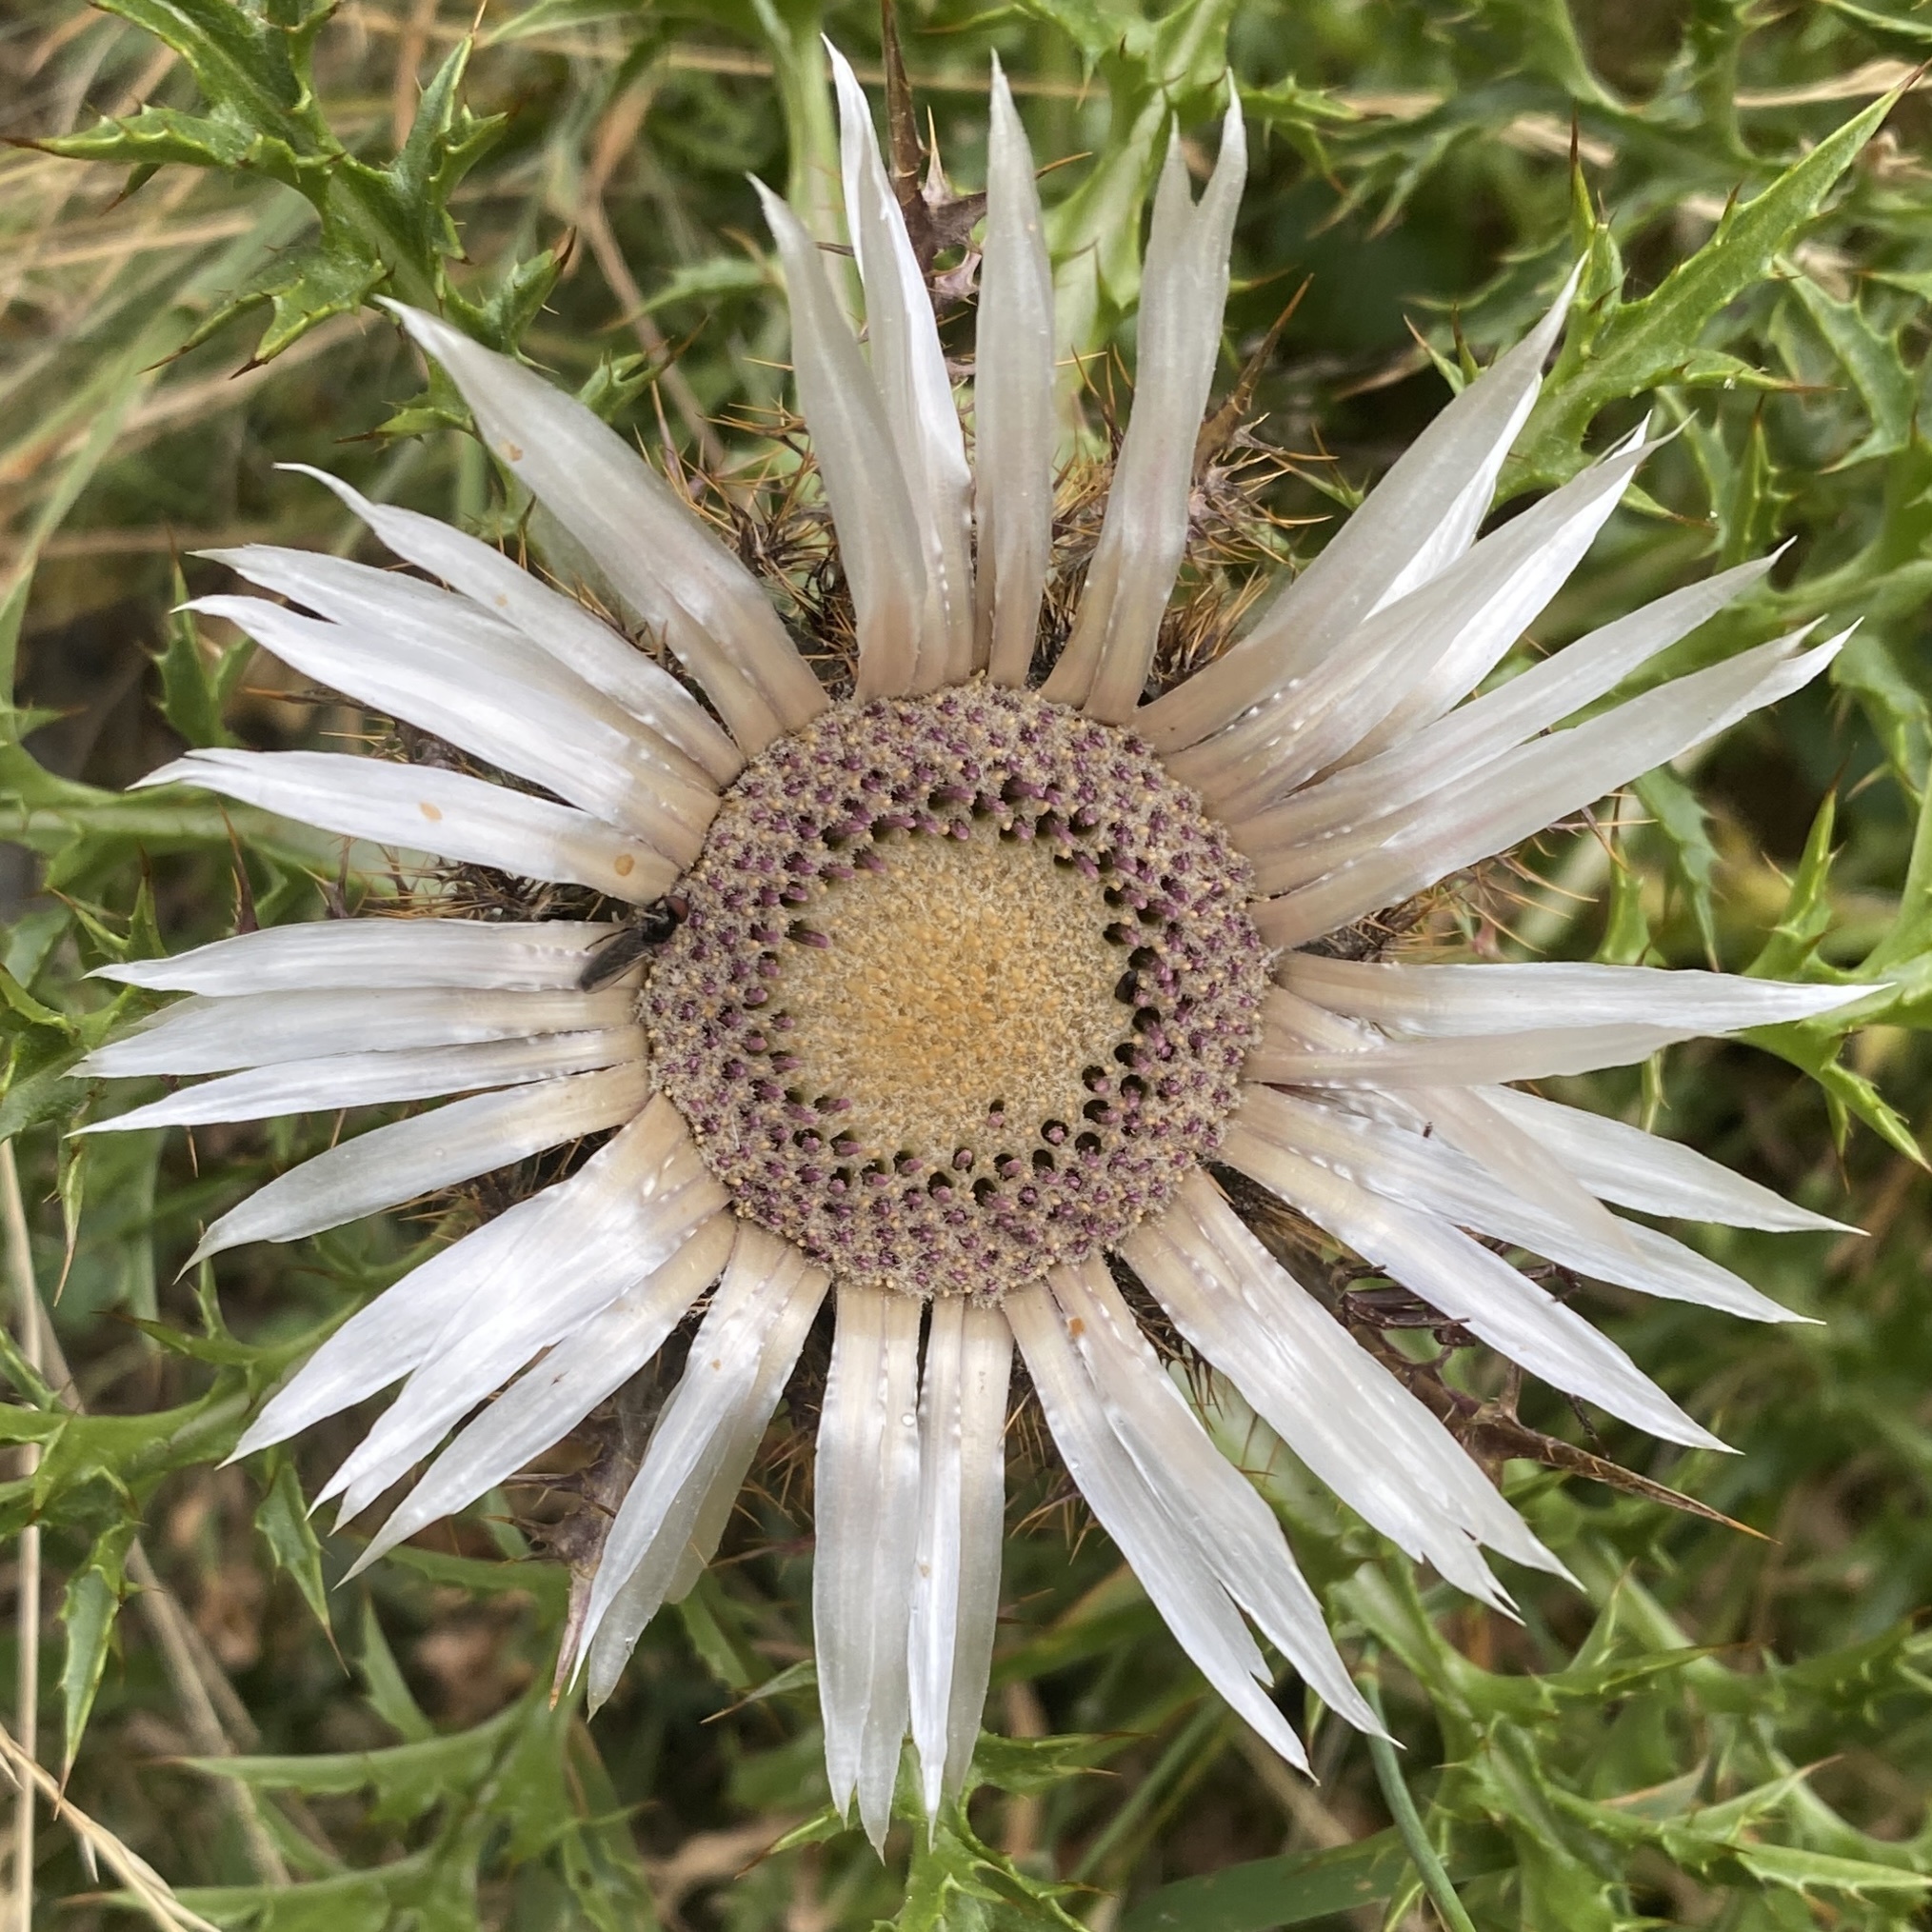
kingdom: Plantae
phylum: Tracheophyta
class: Magnoliopsida
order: Asterales
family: Asteraceae
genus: Carlina
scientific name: Carlina acaulis
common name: Stemless carline thistle
